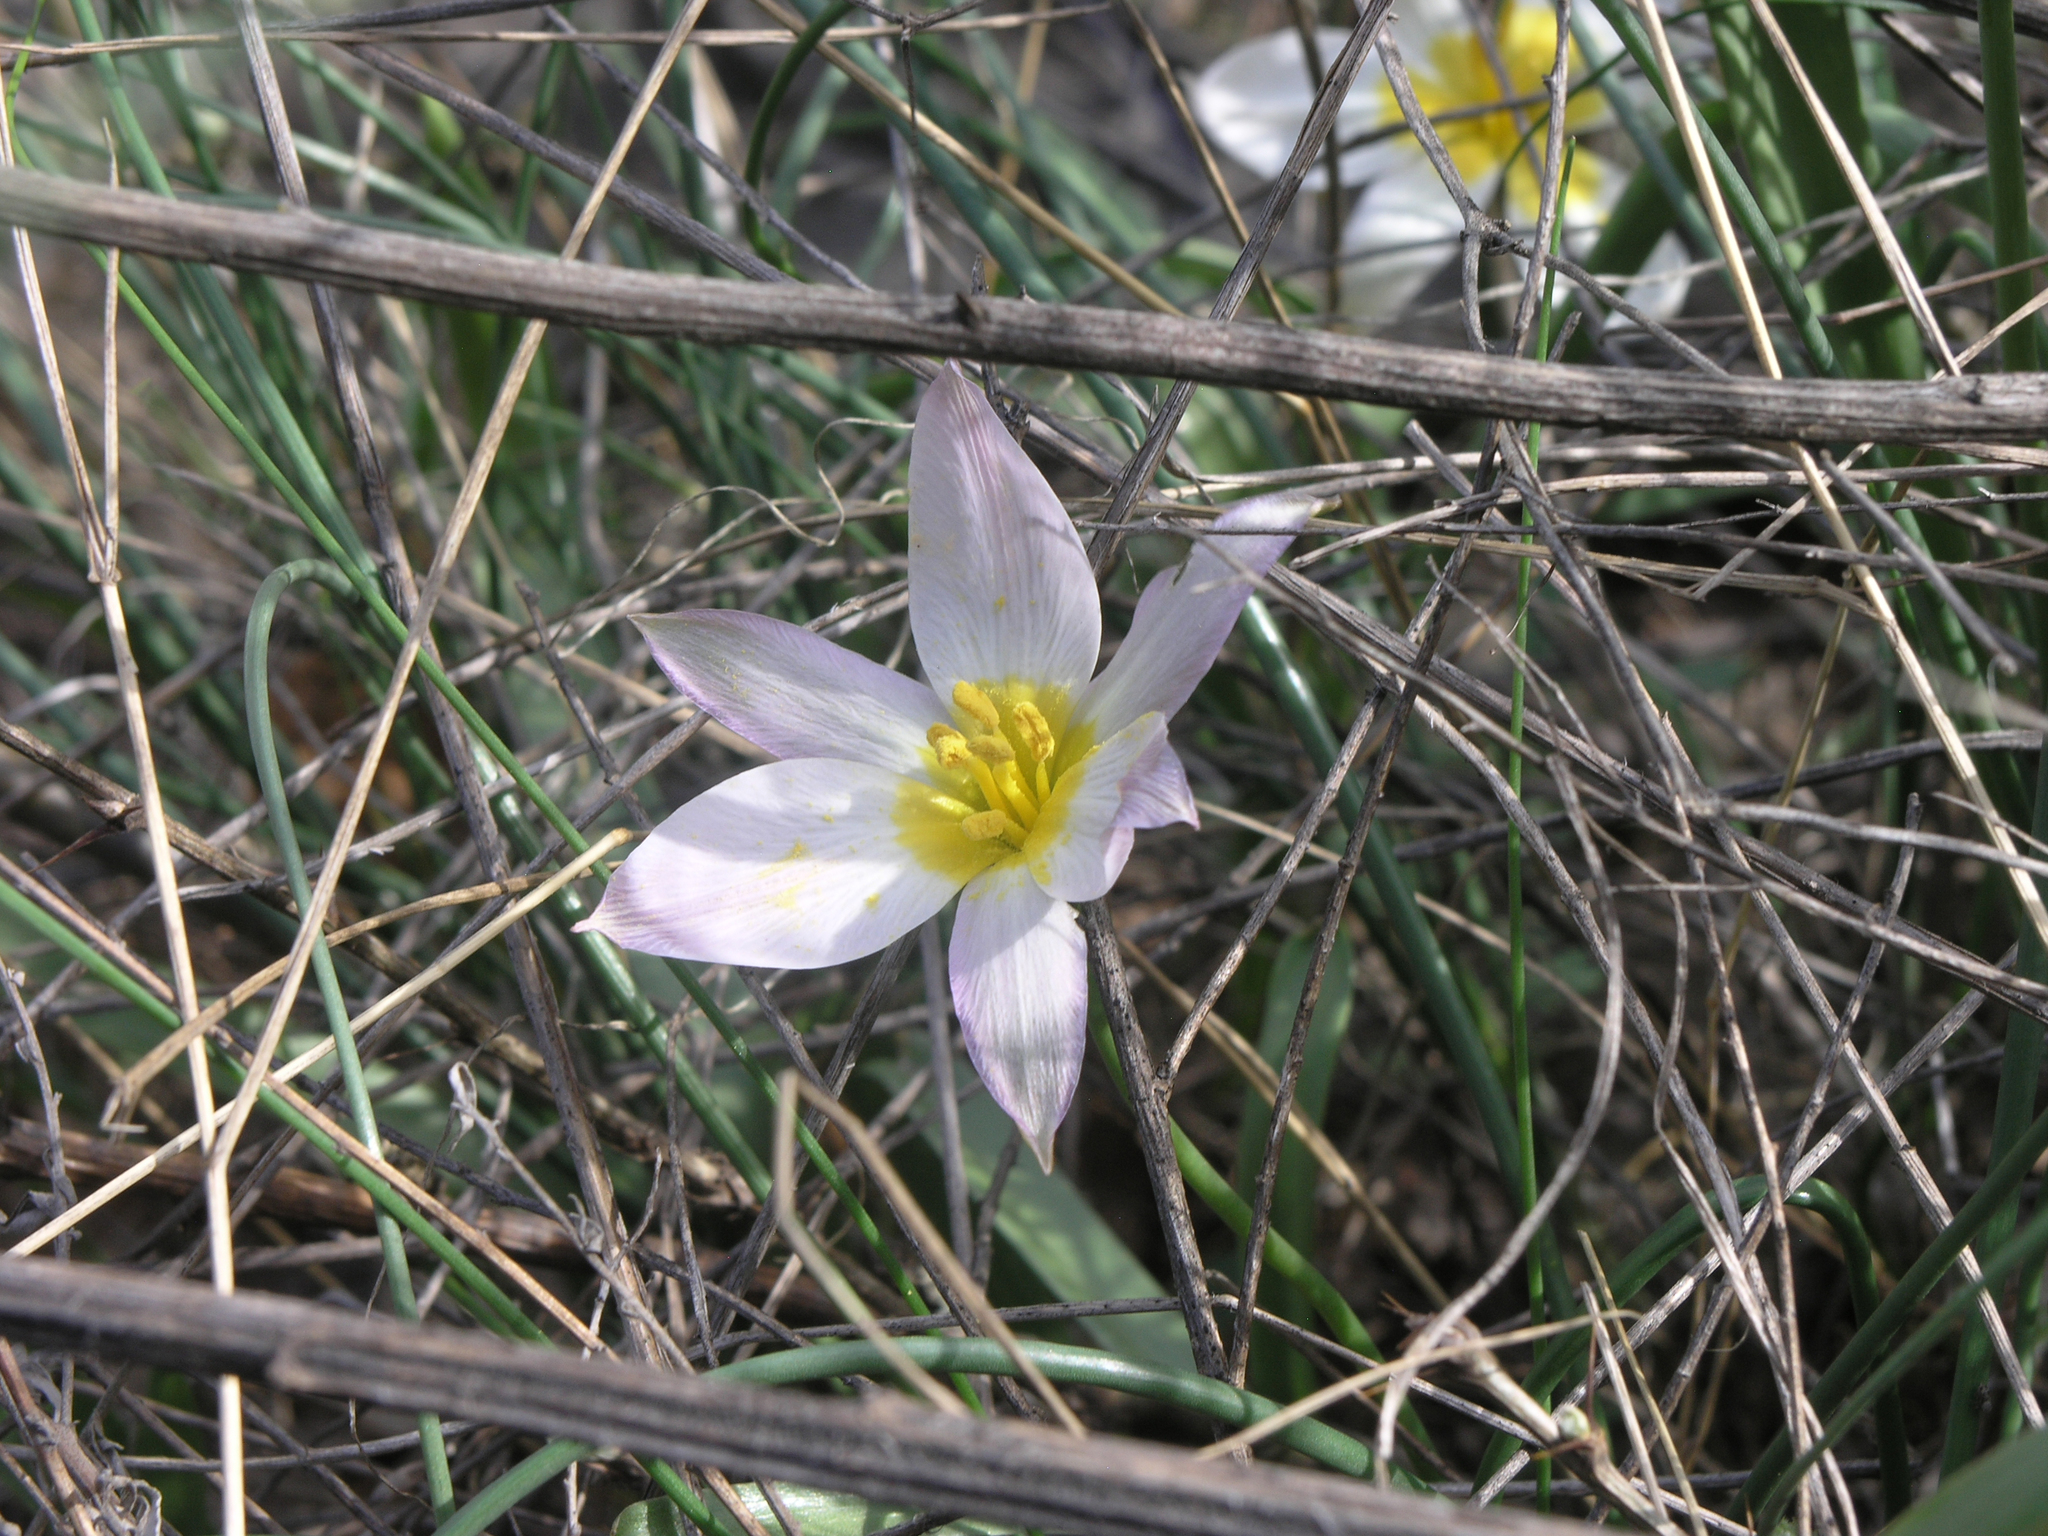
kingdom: Plantae
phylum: Tracheophyta
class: Liliopsida
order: Liliales
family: Liliaceae
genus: Tulipa
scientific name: Tulipa patens
